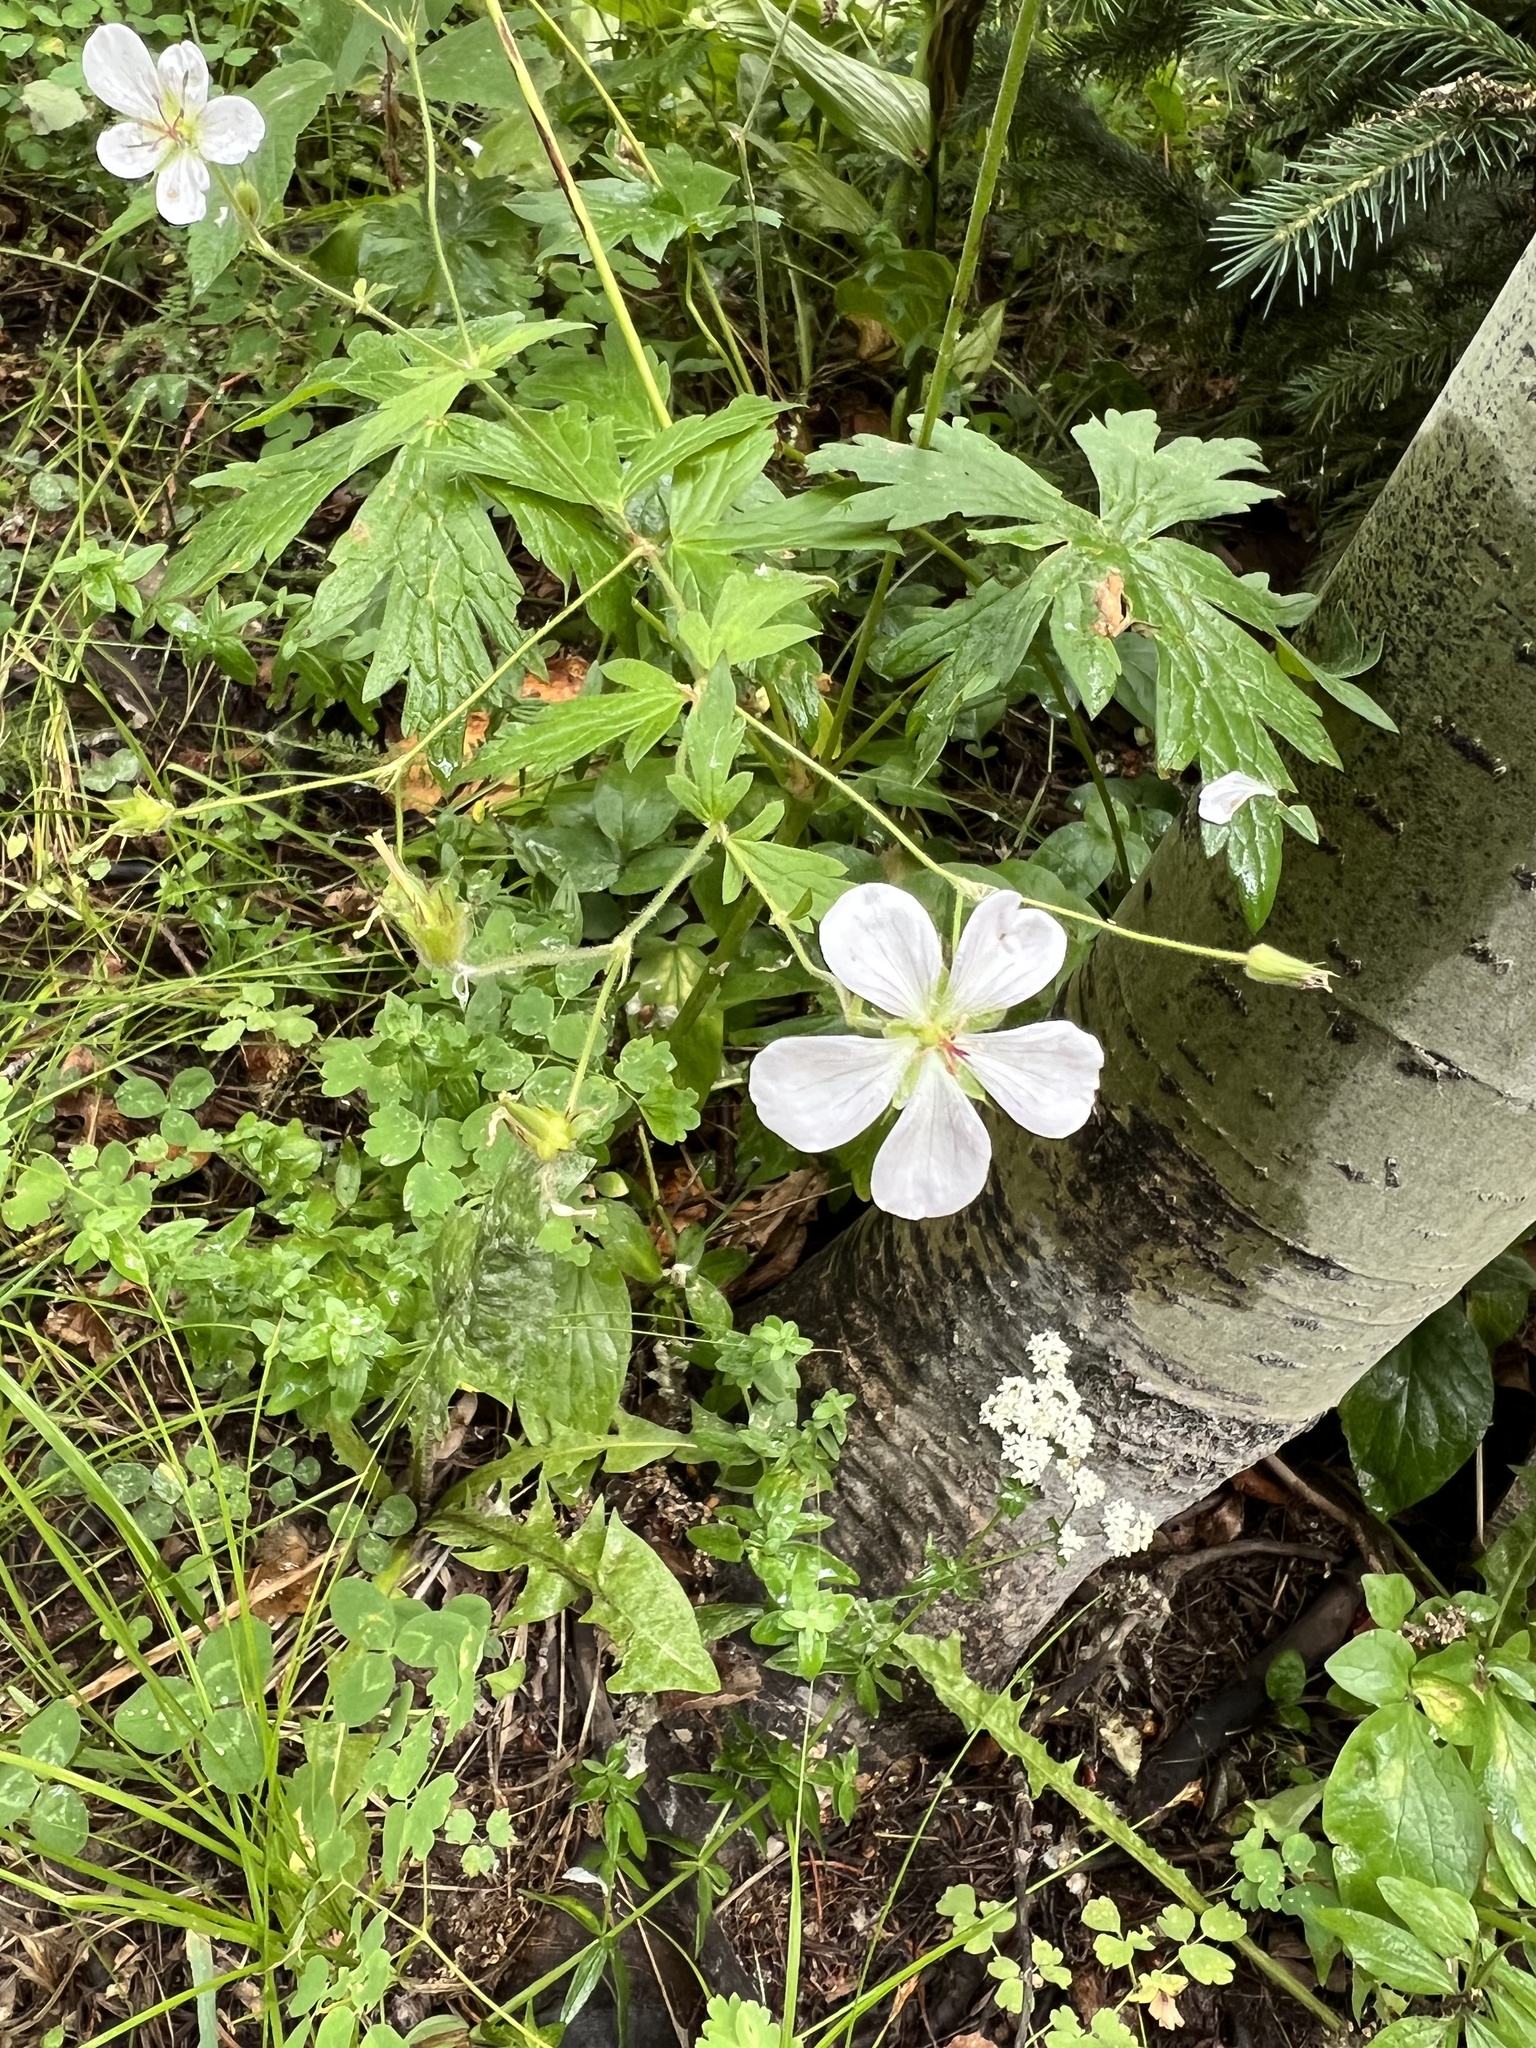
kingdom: Plantae
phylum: Tracheophyta
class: Magnoliopsida
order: Geraniales
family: Geraniaceae
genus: Geranium
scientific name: Geranium richardsonii
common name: Richardson's crane's-bill
